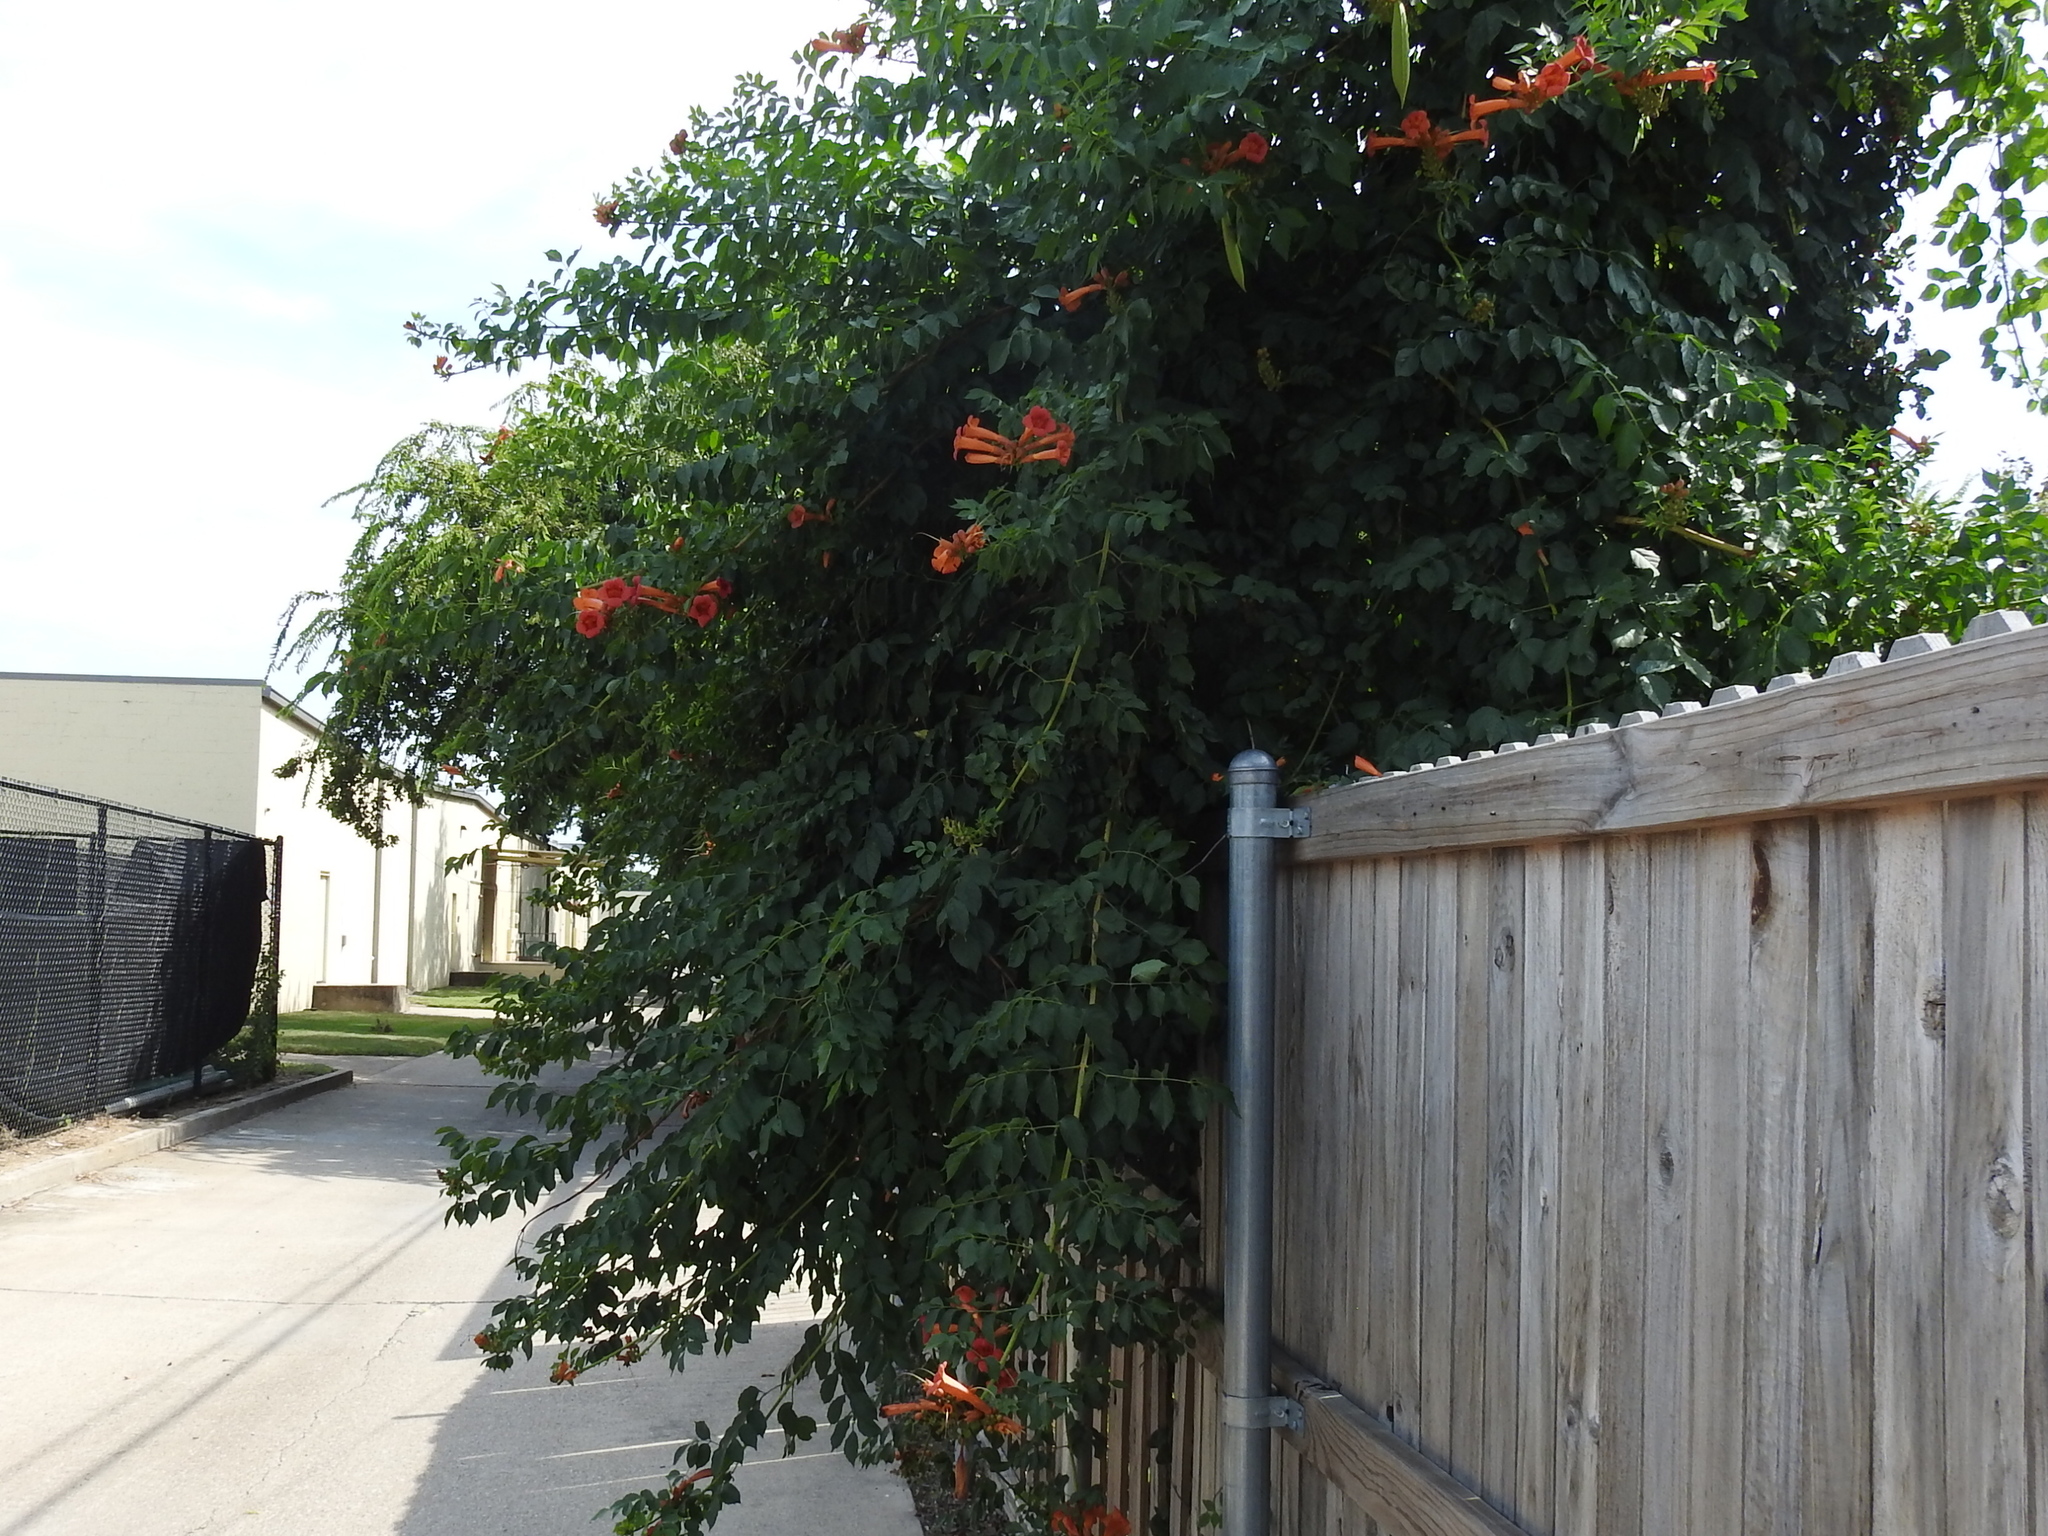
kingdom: Plantae
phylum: Tracheophyta
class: Magnoliopsida
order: Lamiales
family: Bignoniaceae
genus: Campsis
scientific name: Campsis radicans
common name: Trumpet-creeper
